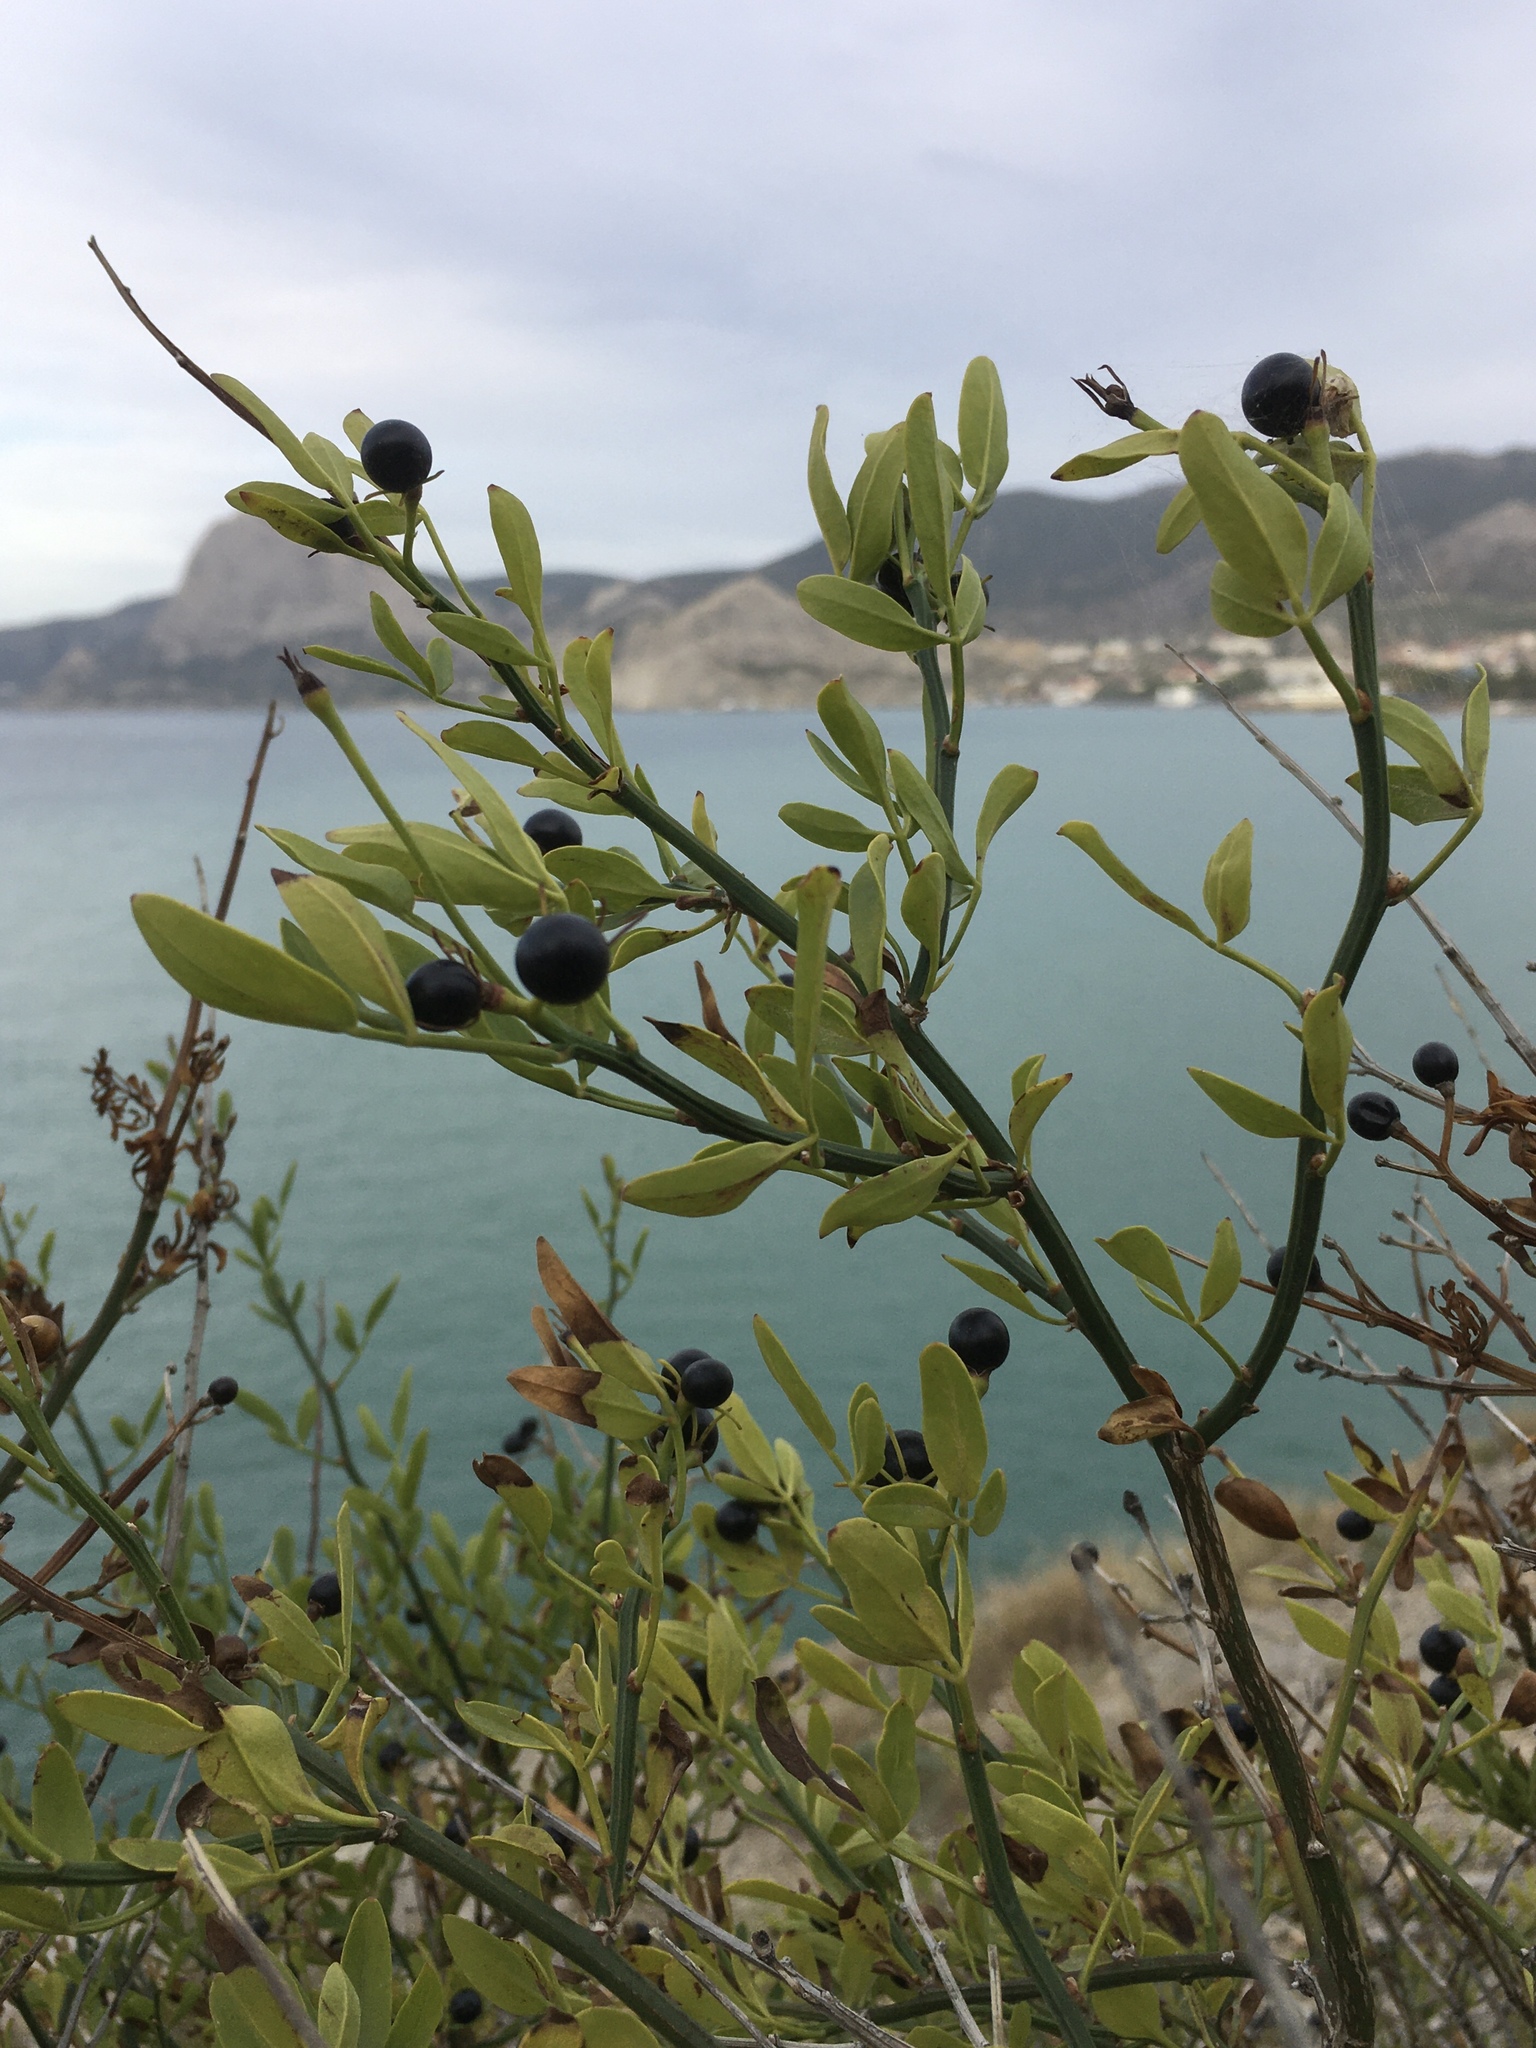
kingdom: Plantae
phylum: Tracheophyta
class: Magnoliopsida
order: Lamiales
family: Oleaceae
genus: Chrysojasminum
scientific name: Chrysojasminum fruticans
